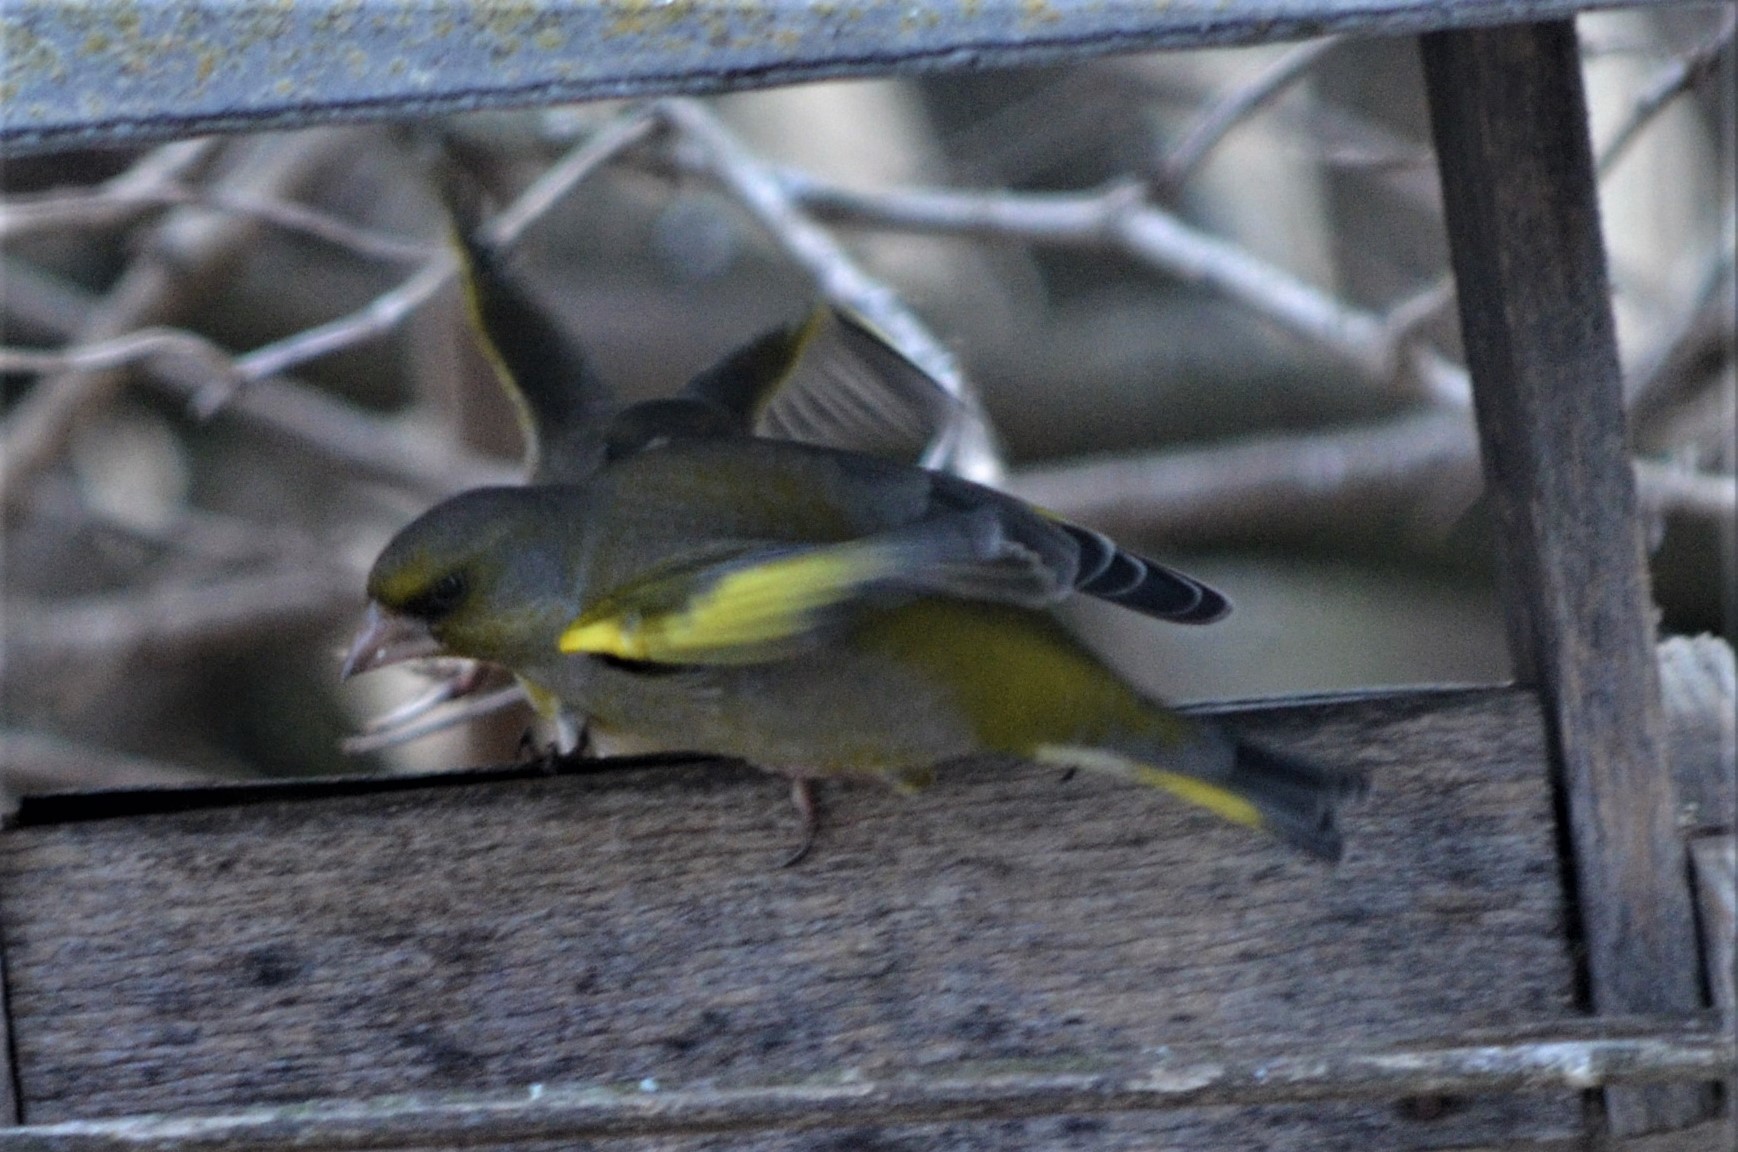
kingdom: Plantae
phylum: Tracheophyta
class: Liliopsida
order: Poales
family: Poaceae
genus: Chloris
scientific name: Chloris chloris
